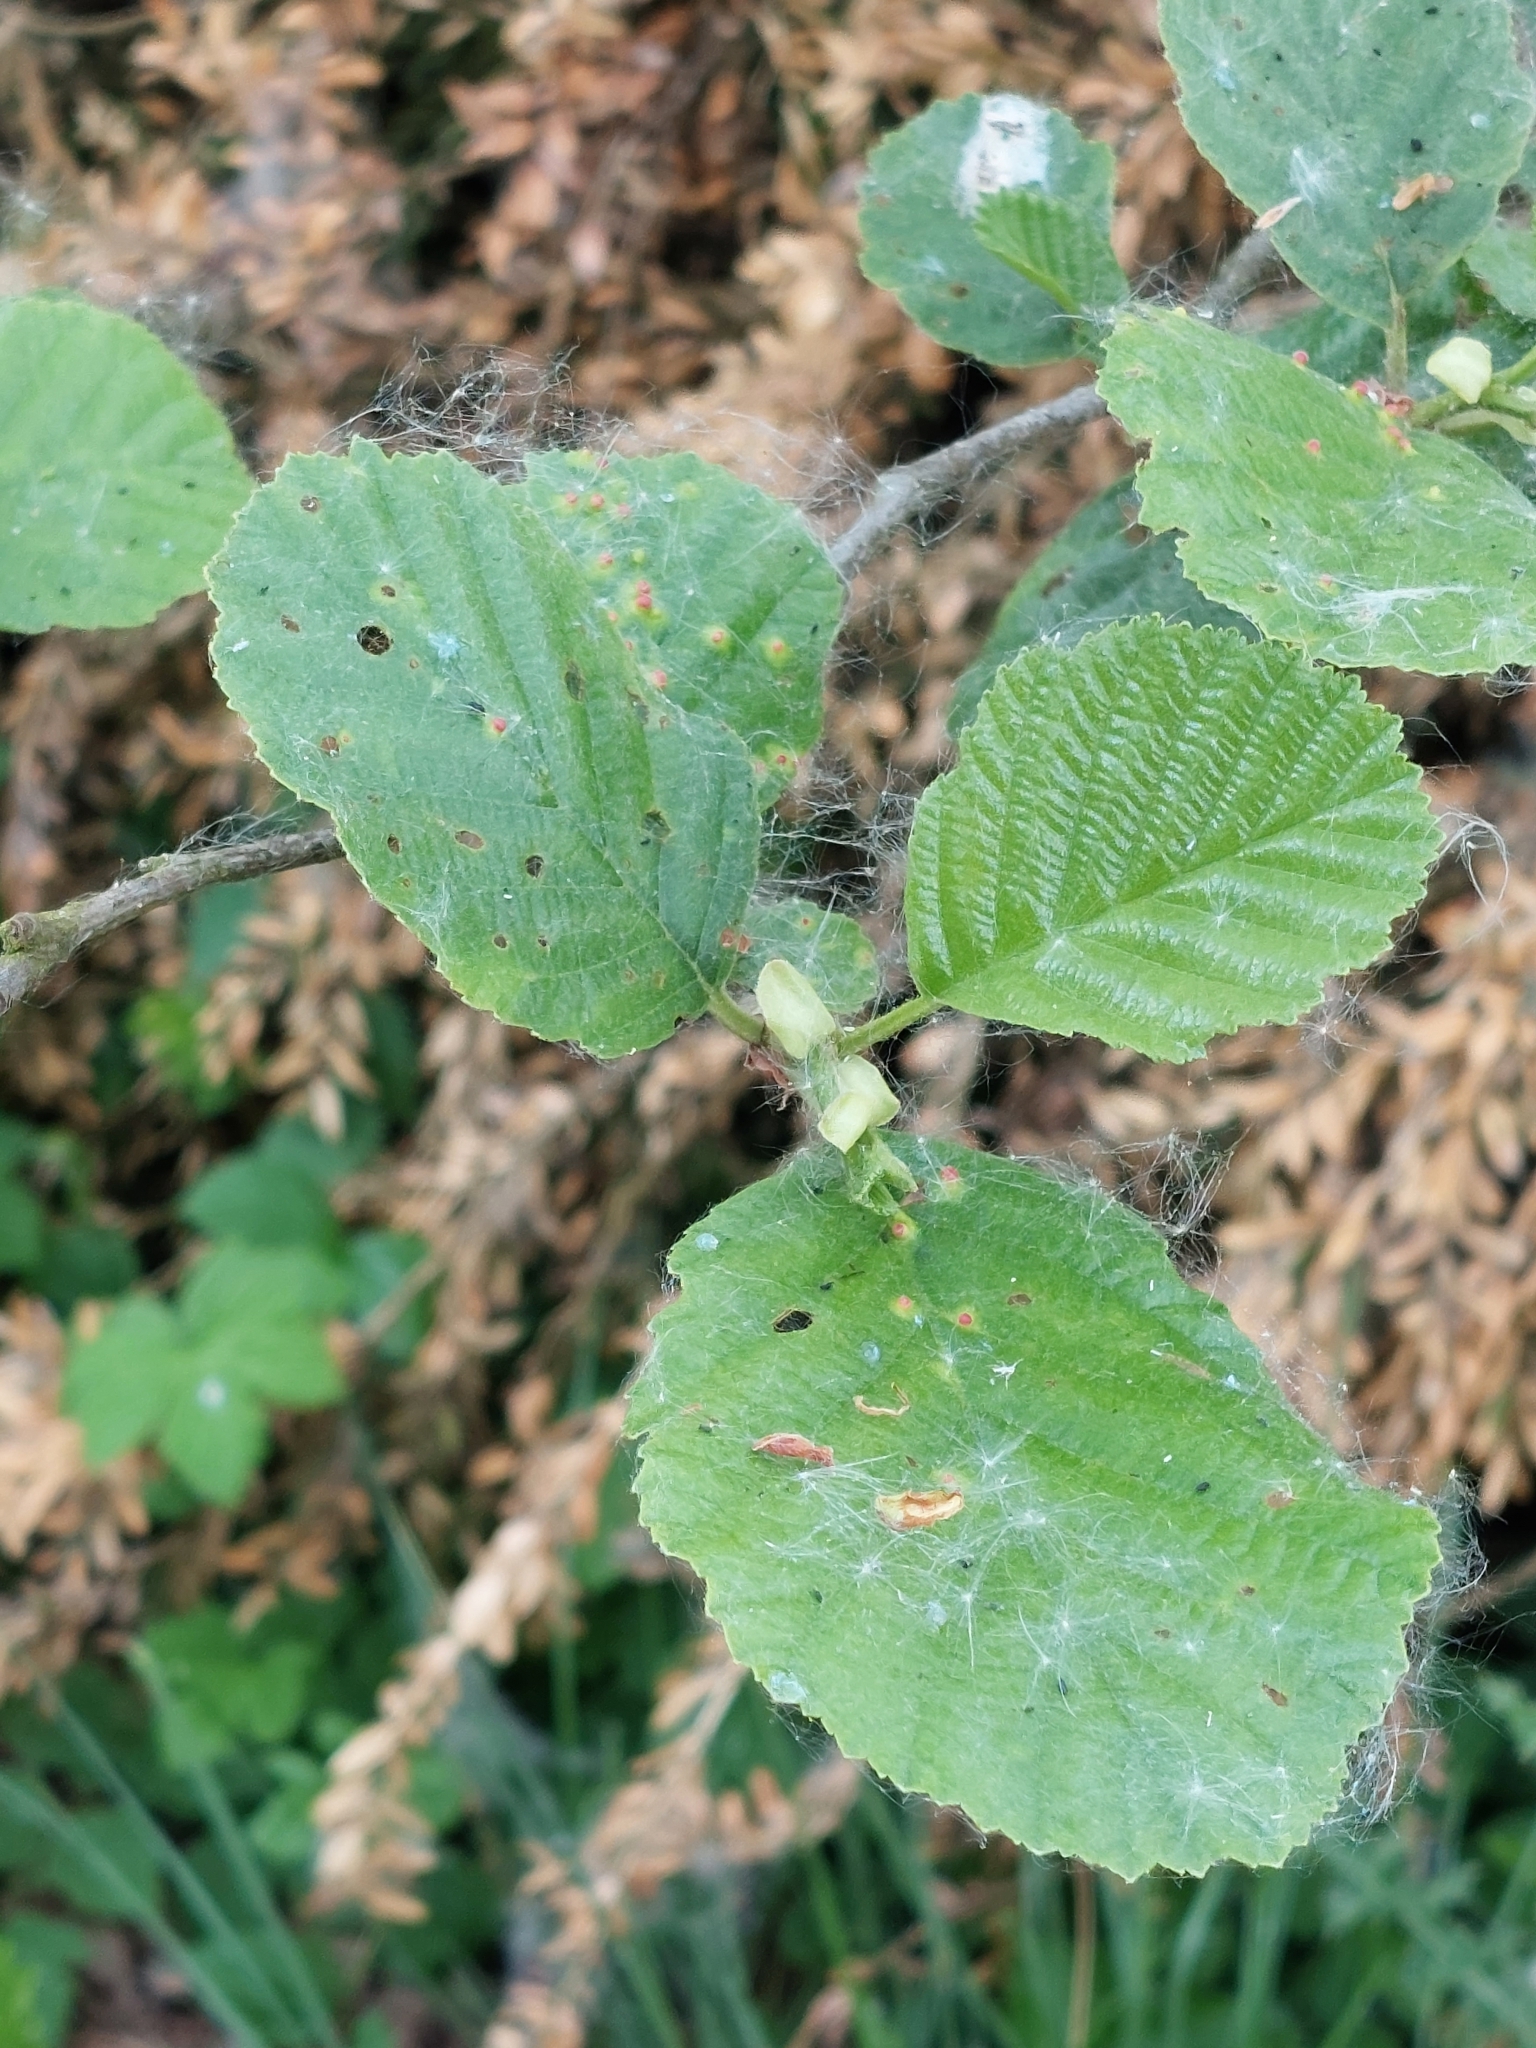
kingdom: Plantae
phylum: Tracheophyta
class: Magnoliopsida
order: Fagales
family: Betulaceae
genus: Alnus
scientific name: Alnus glutinosa
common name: Black alder
